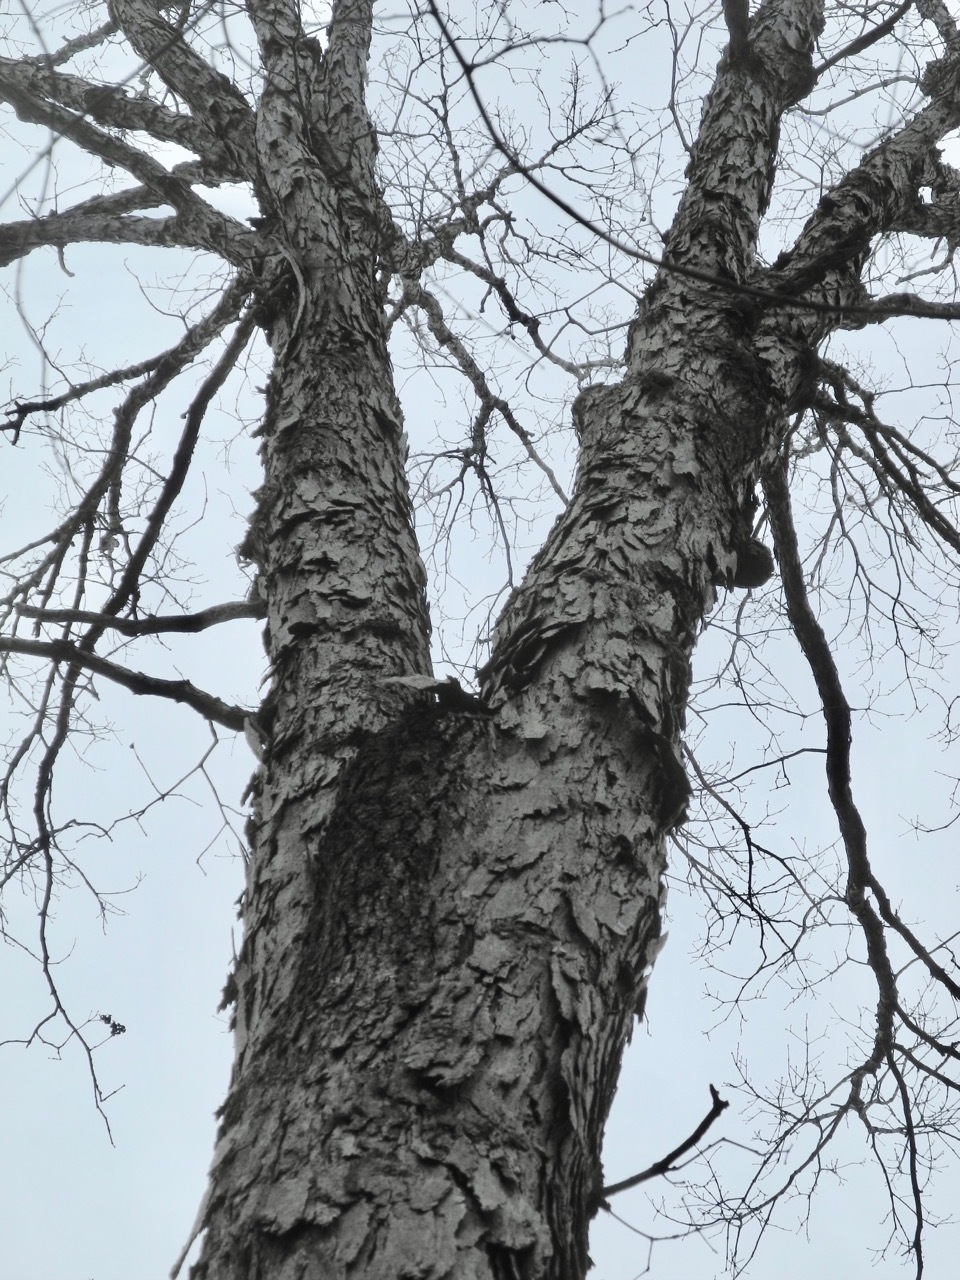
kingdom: Plantae
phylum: Tracheophyta
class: Magnoliopsida
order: Fagales
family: Juglandaceae
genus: Carya
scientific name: Carya ovata
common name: Shagbark hickory
